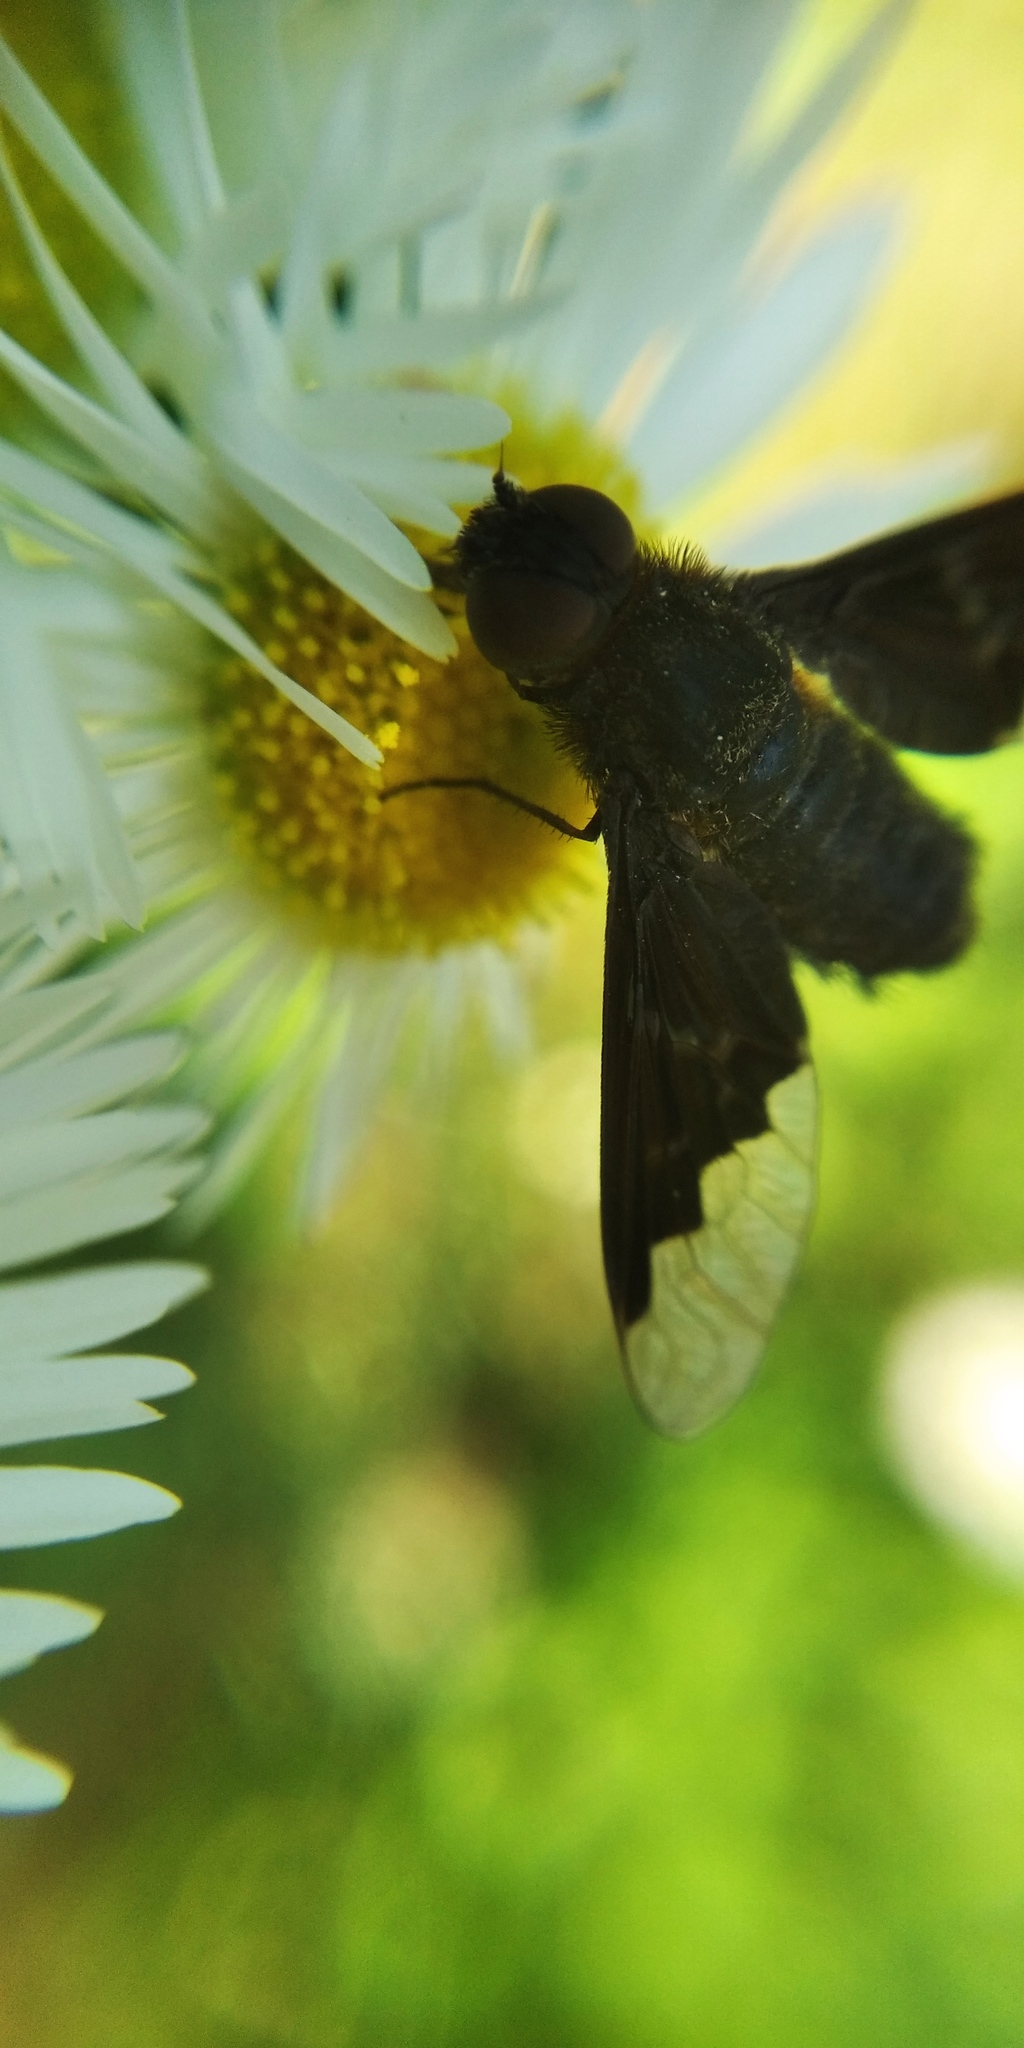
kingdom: Animalia
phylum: Arthropoda
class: Insecta
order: Diptera
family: Bombyliidae
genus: Hemipenthes
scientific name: Hemipenthes morio
